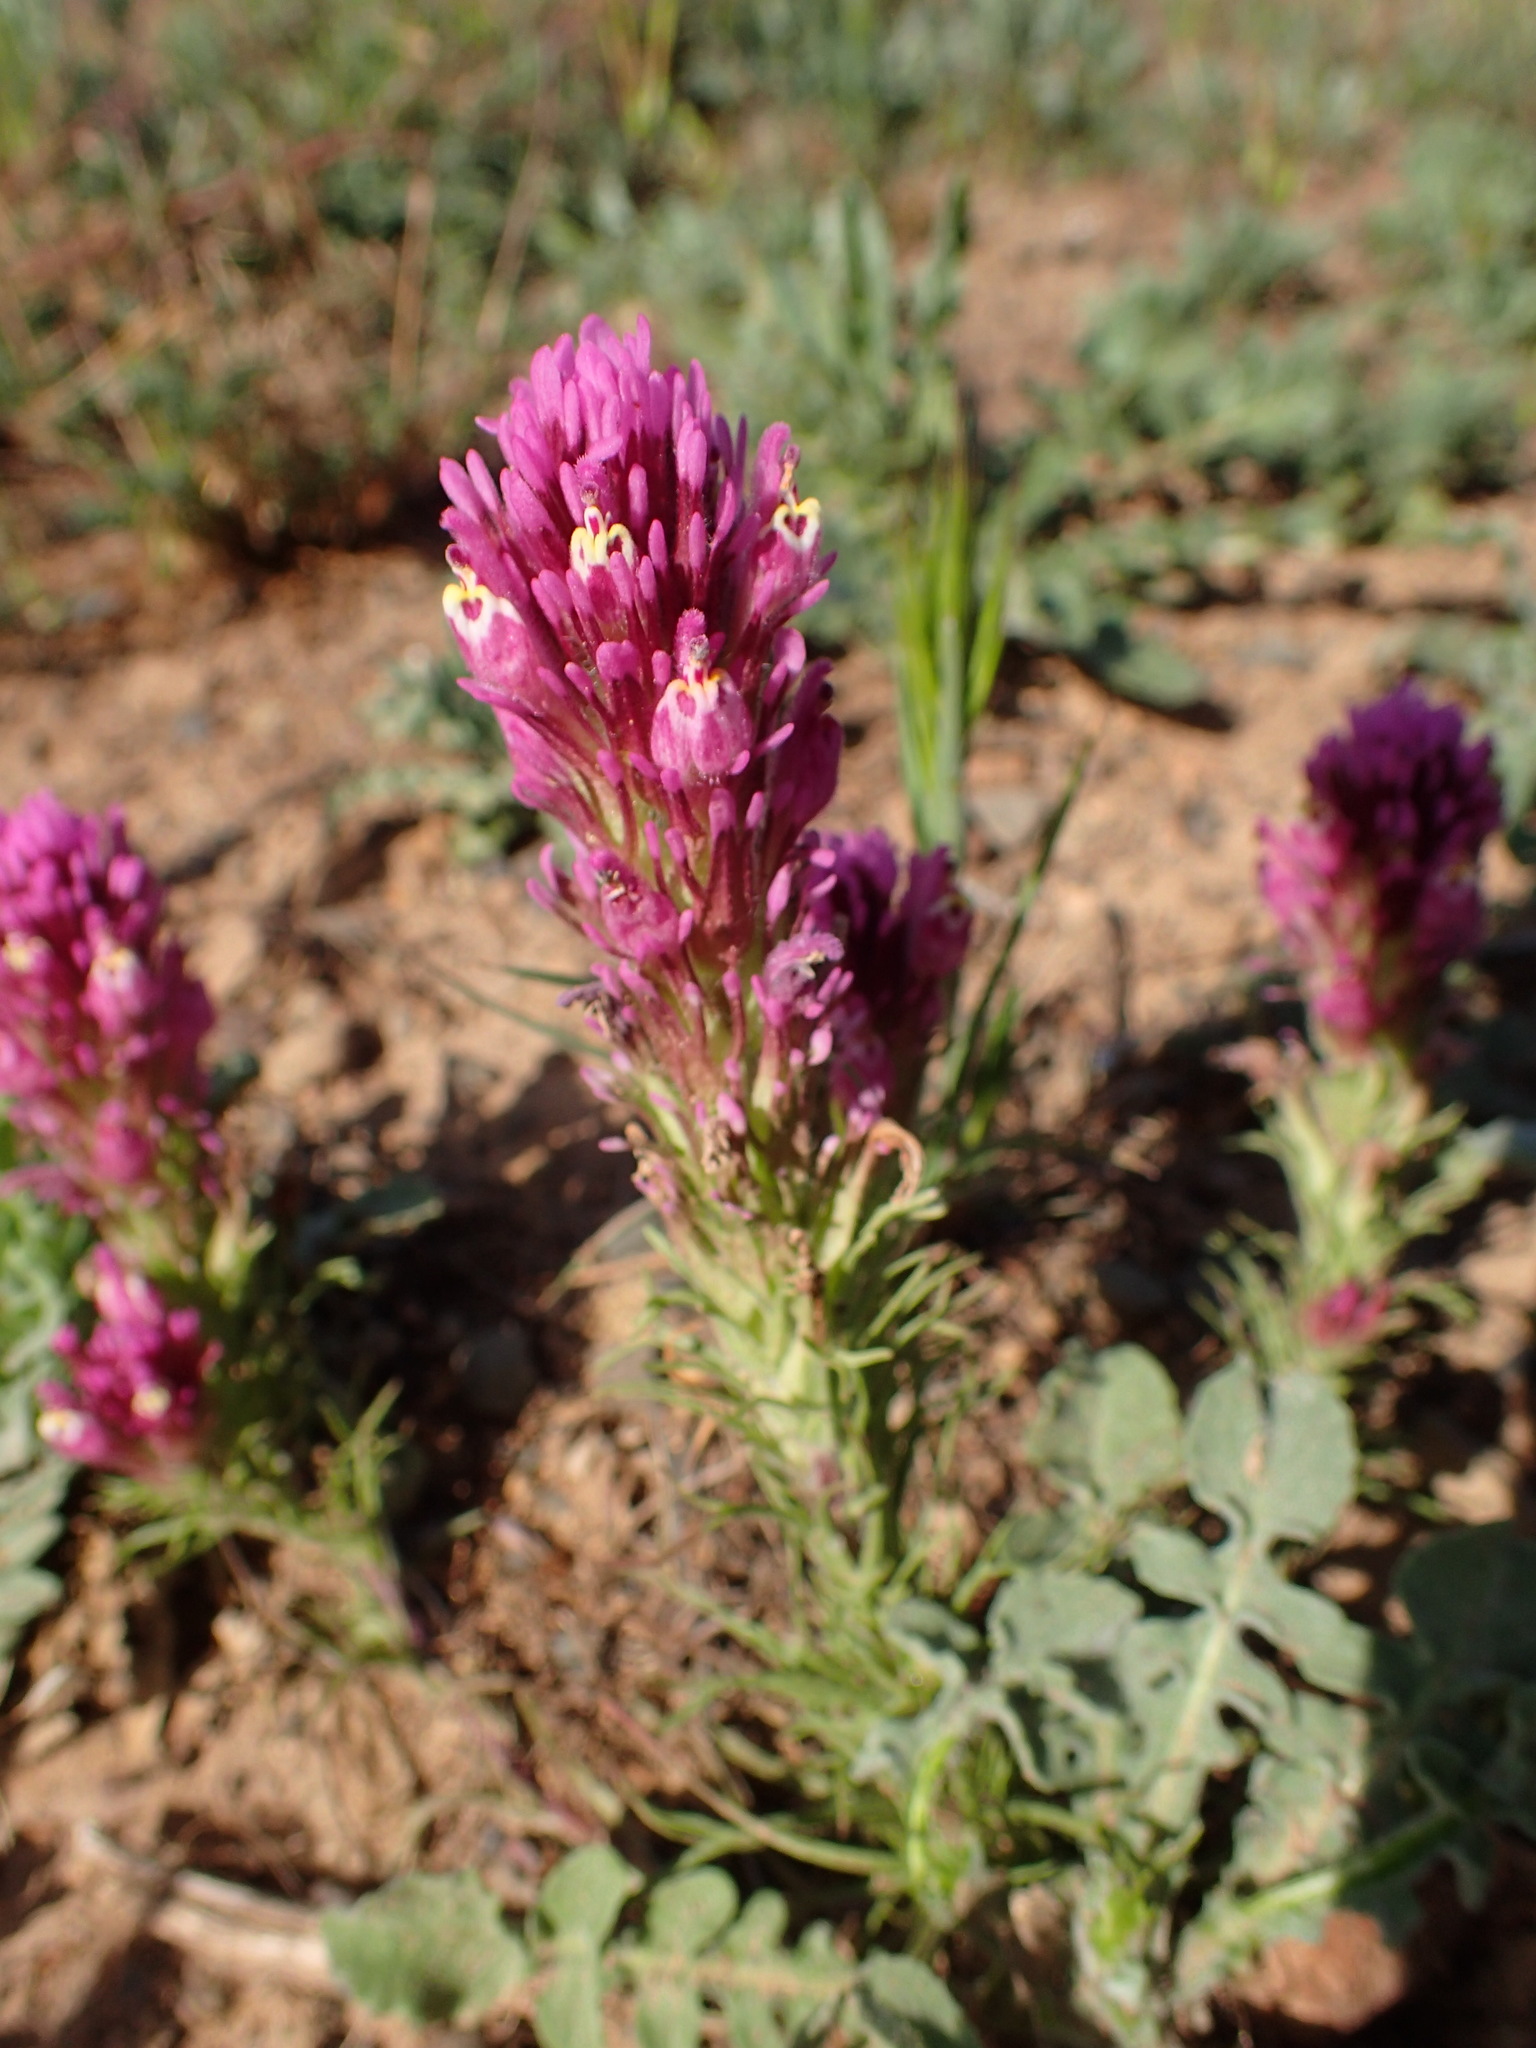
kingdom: Plantae
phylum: Tracheophyta
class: Magnoliopsida
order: Lamiales
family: Orobanchaceae
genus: Castilleja
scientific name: Castilleja exserta
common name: Purple owl-clover
